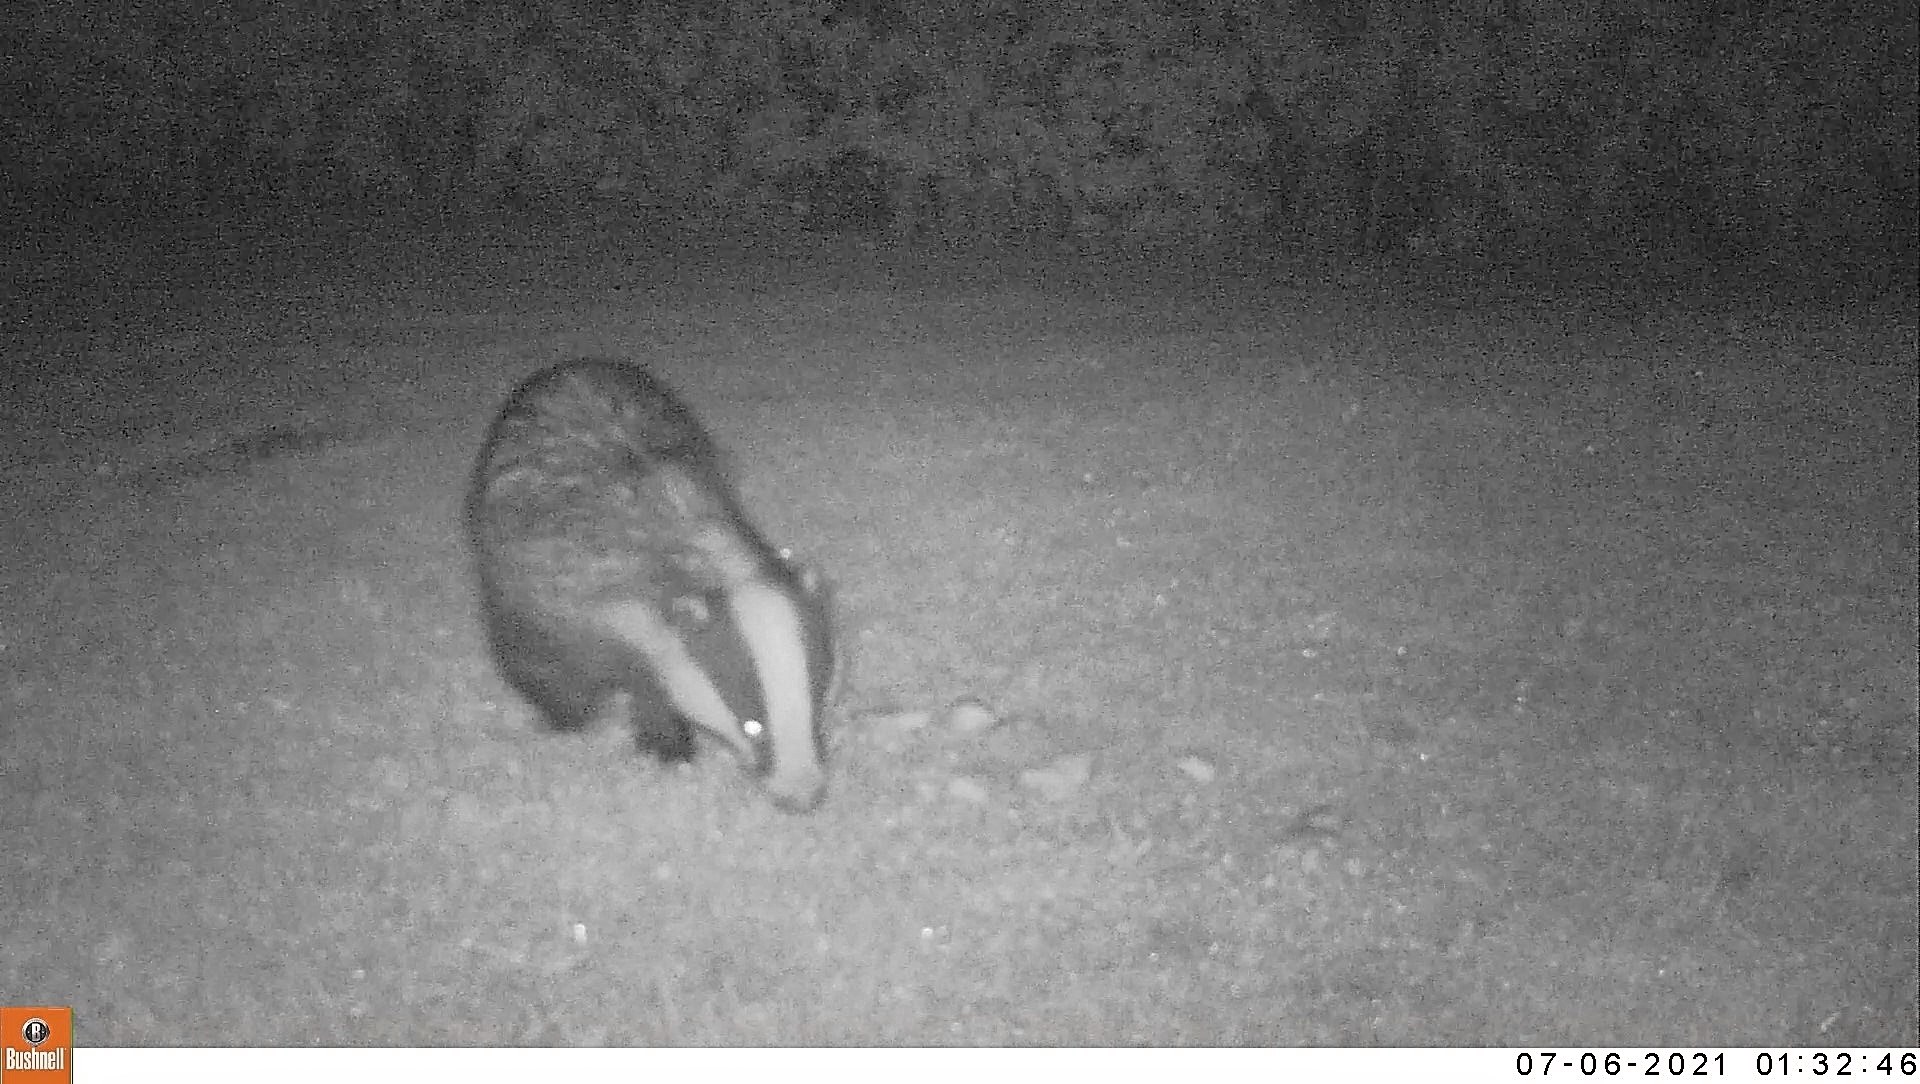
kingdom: Animalia
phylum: Chordata
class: Mammalia
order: Carnivora
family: Mustelidae
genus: Meles
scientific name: Meles meles
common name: Eurasian badger
